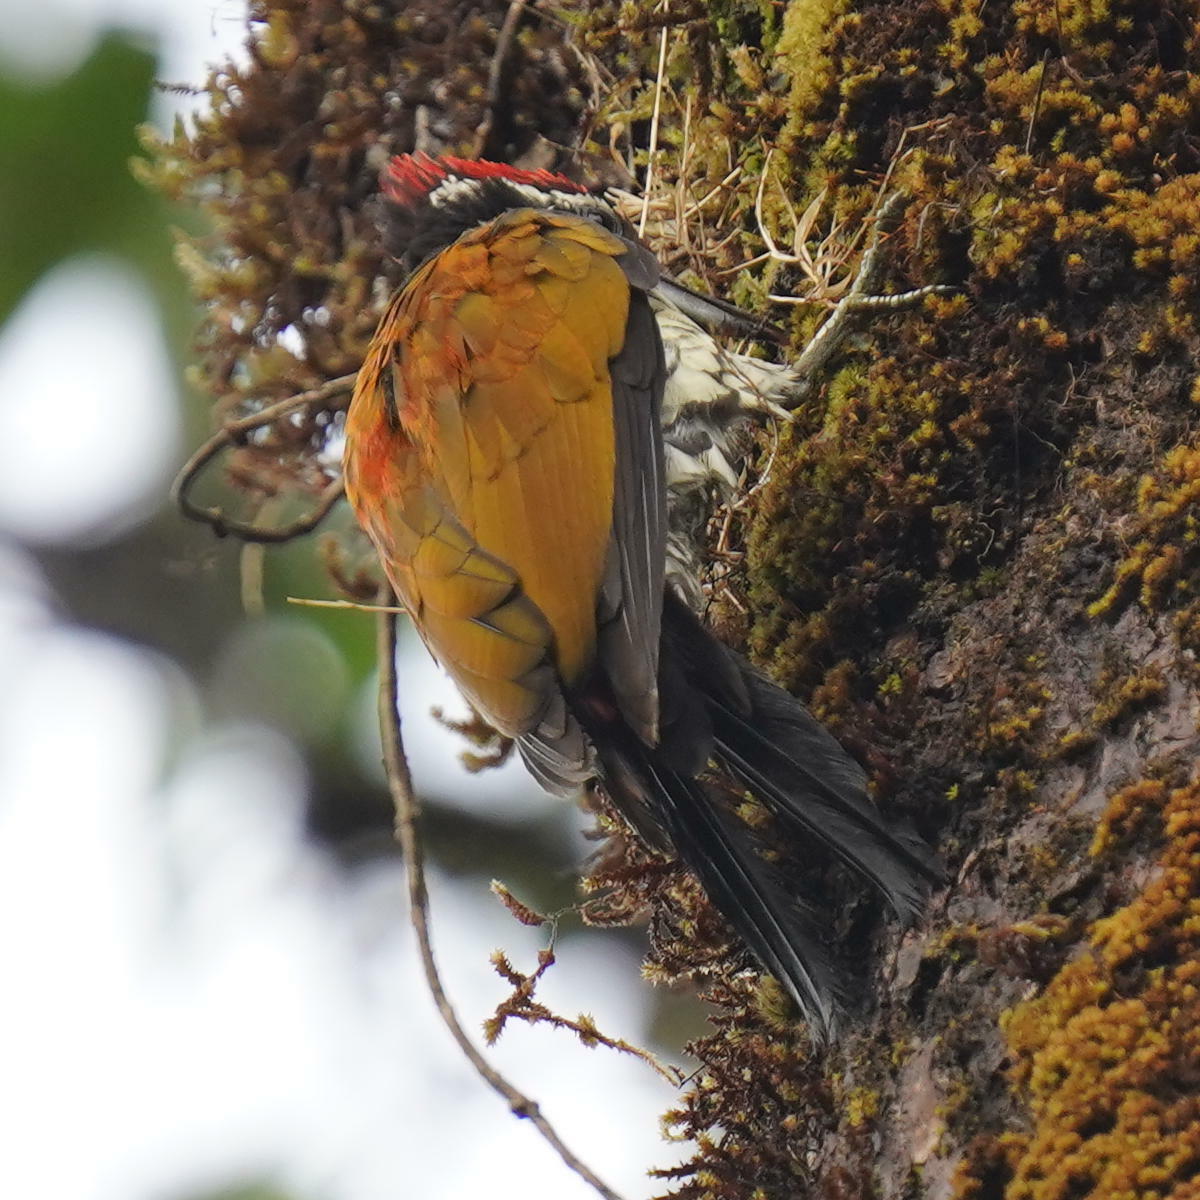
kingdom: Animalia
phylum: Chordata
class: Aves
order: Piciformes
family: Picidae
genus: Dinopium
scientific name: Dinopium javanense
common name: Common flameback
